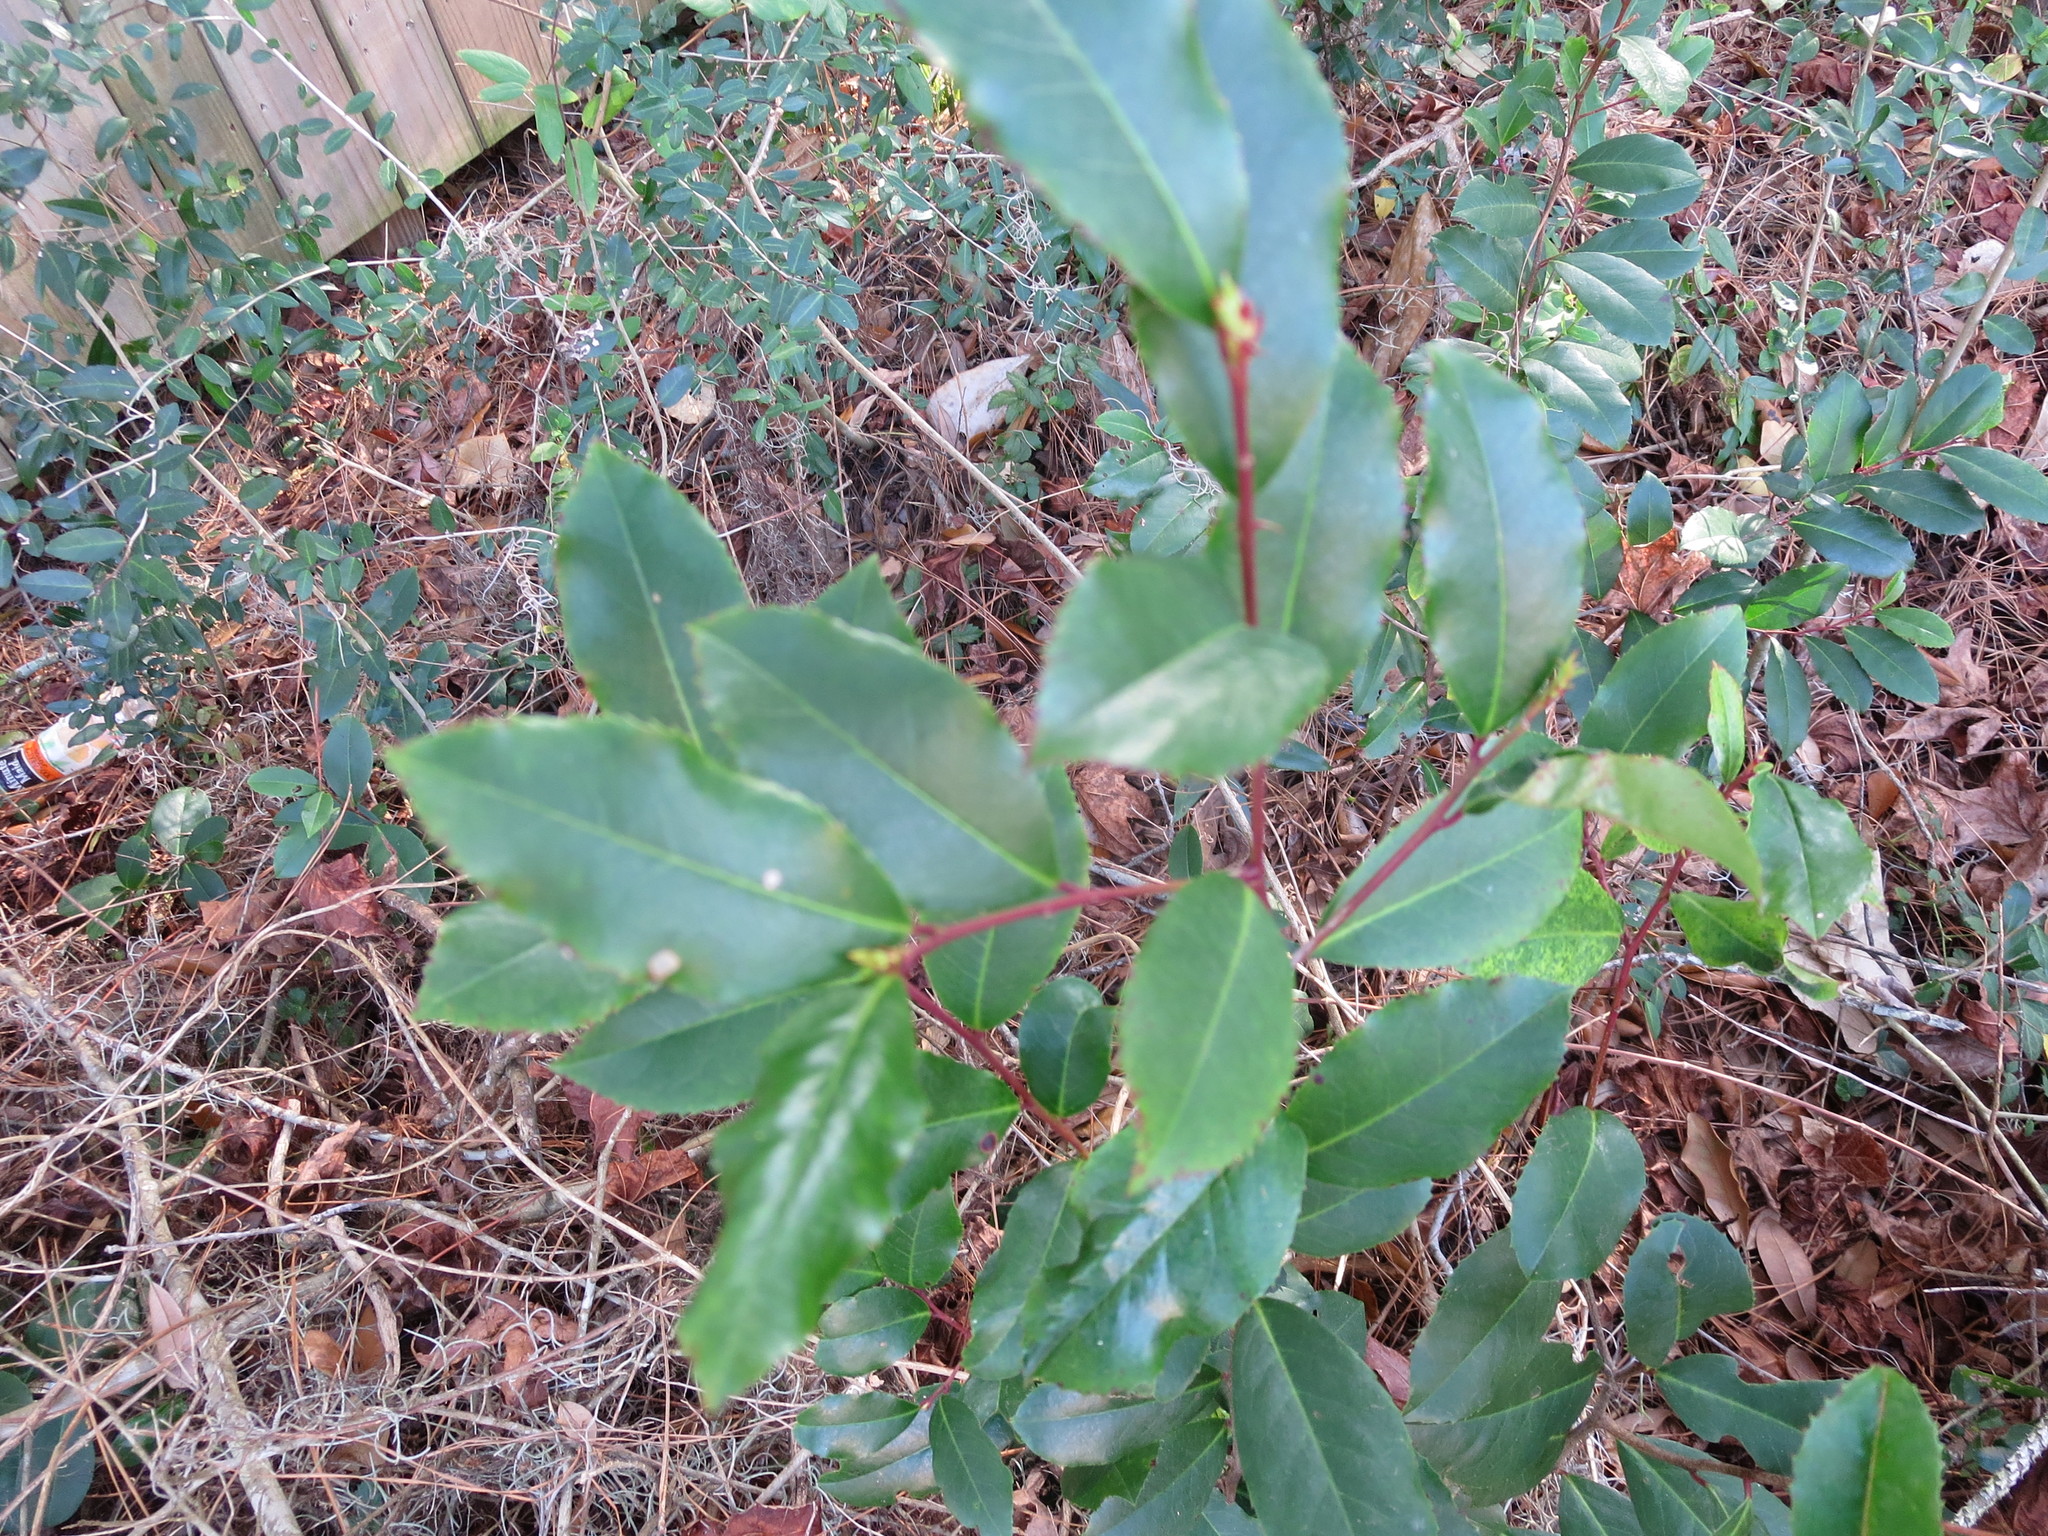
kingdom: Plantae
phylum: Tracheophyta
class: Magnoliopsida
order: Rosales
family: Rosaceae
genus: Prunus
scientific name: Prunus caroliniana
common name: Carolina laurel cherry
